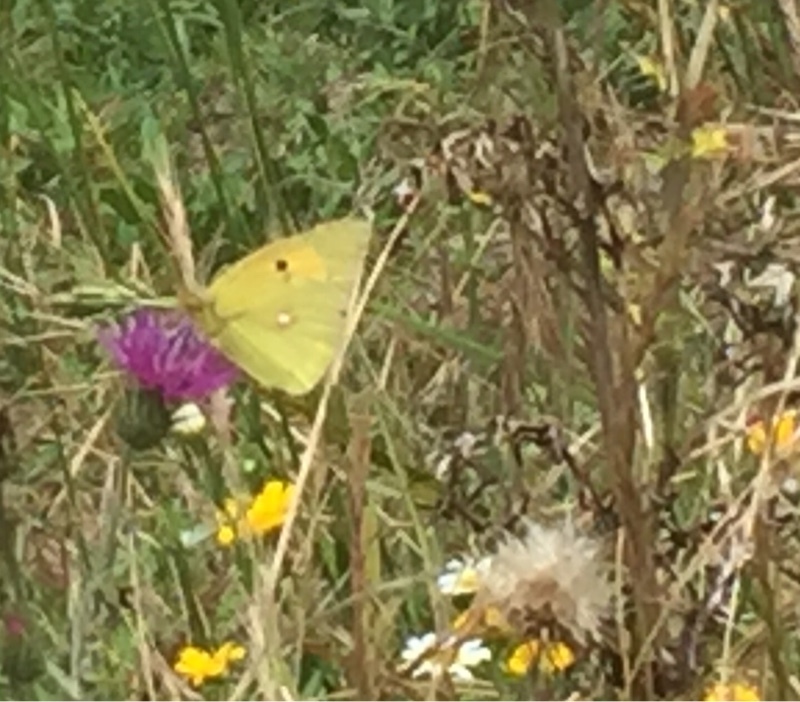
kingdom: Animalia
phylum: Arthropoda
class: Insecta
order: Lepidoptera
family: Pieridae
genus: Colias
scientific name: Colias croceus
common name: Clouded yellow
